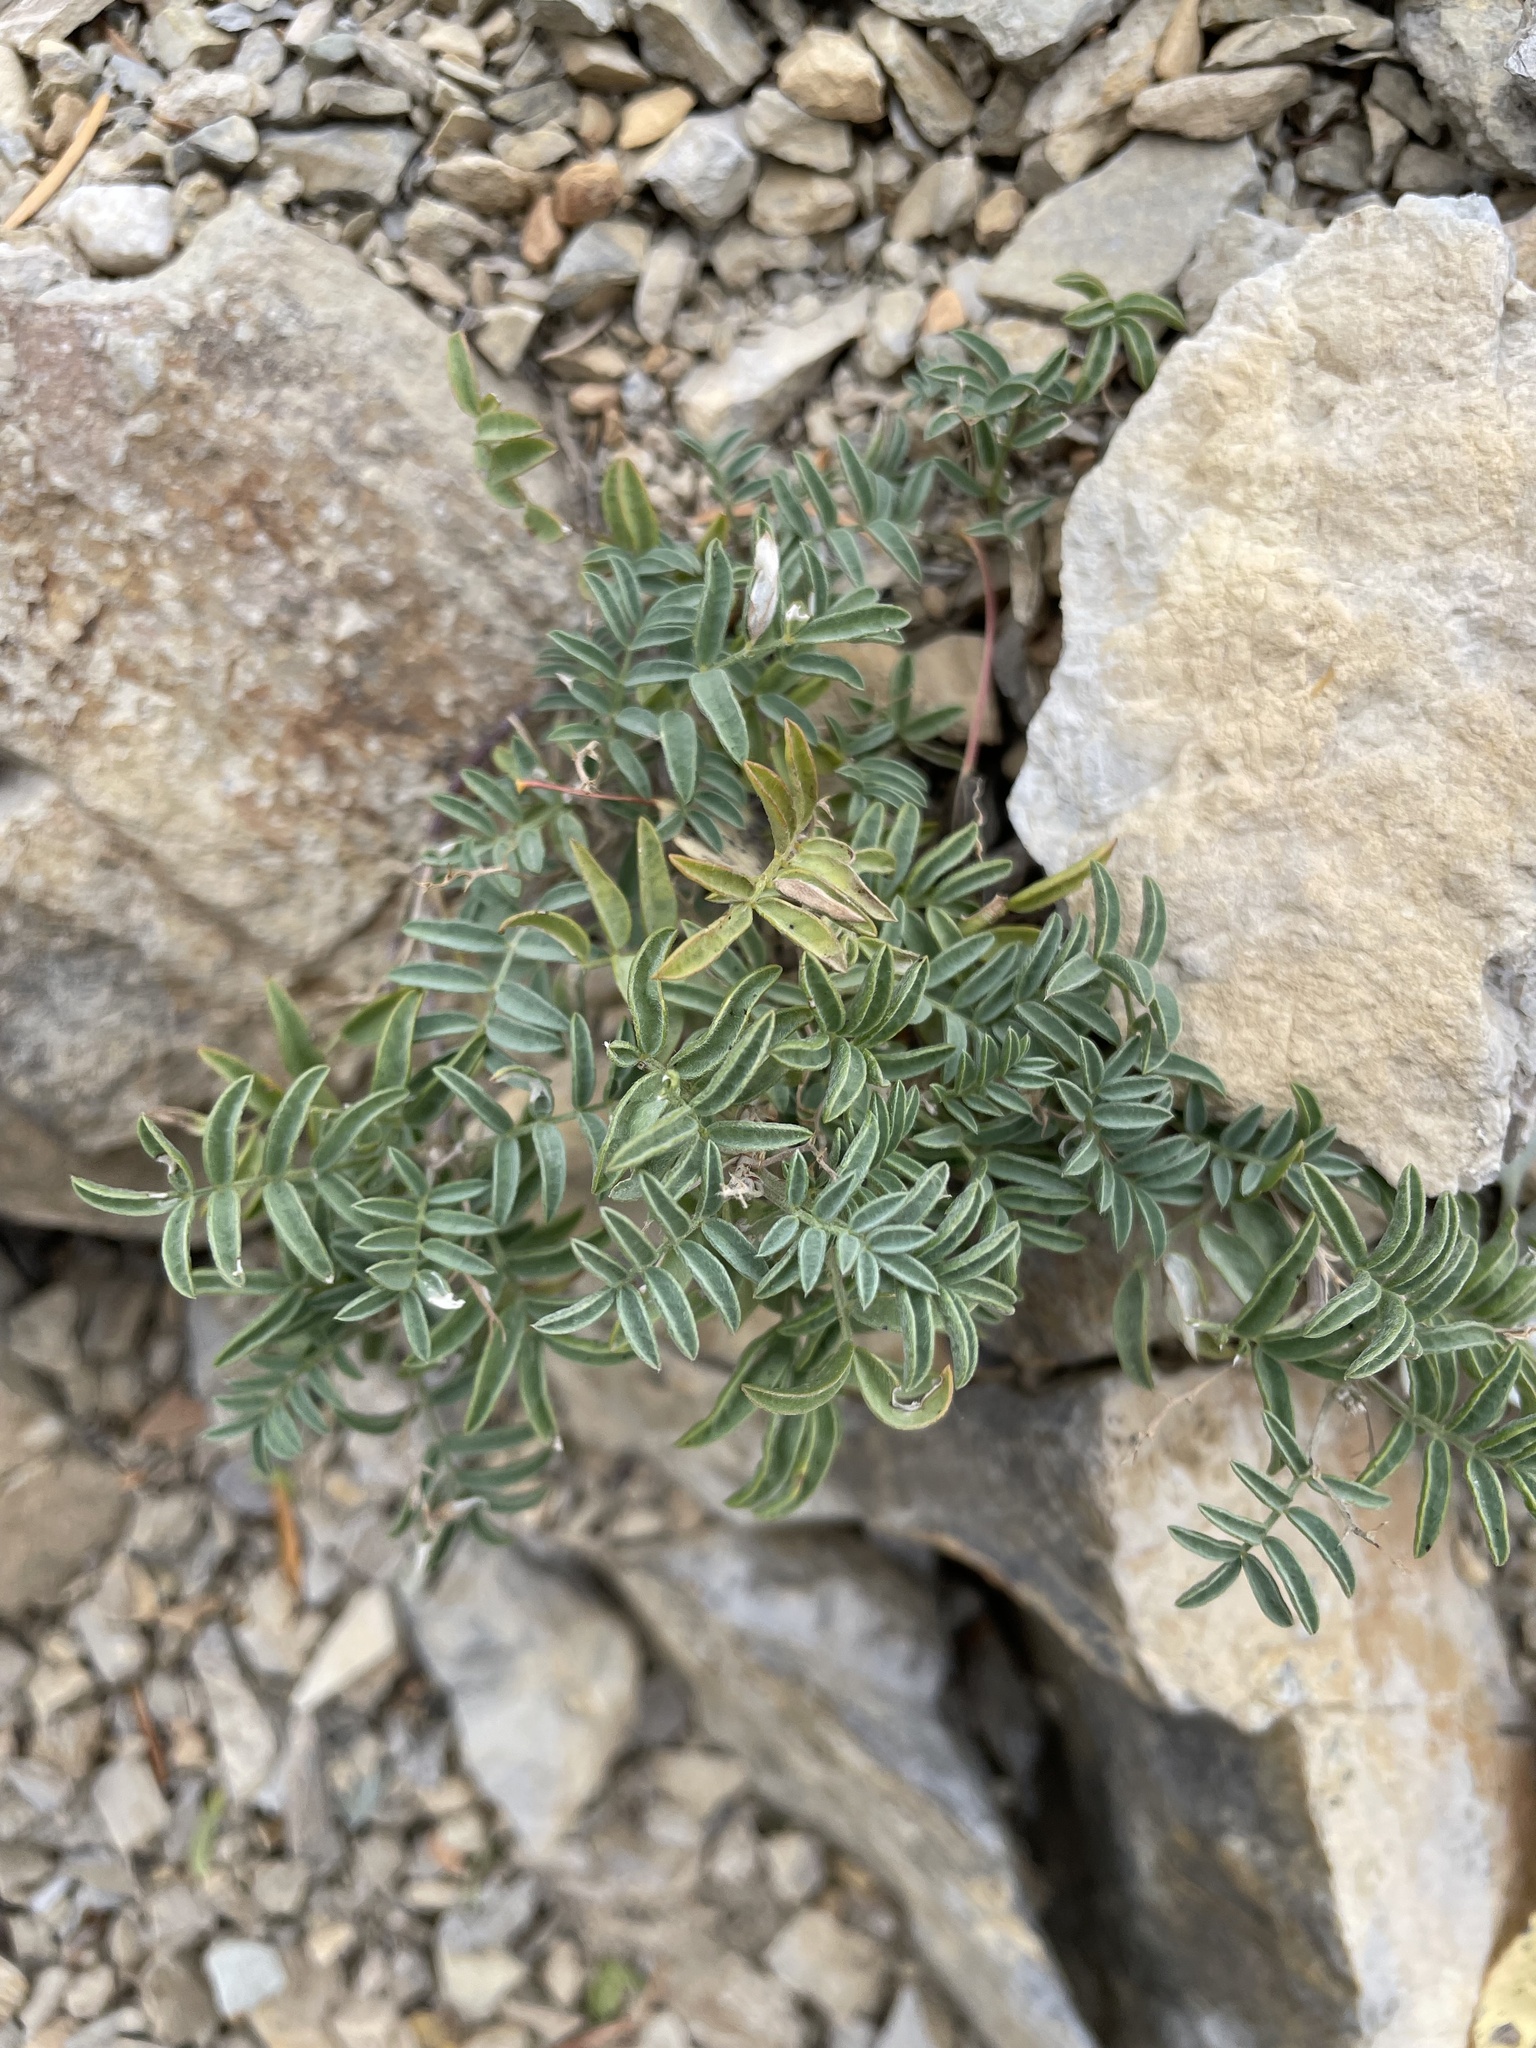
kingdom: Plantae
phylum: Tracheophyta
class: Magnoliopsida
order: Fabales
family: Fabaceae
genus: Astragalus
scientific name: Astragalus vexilliflexus
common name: Bent-flowered milk-vetch
